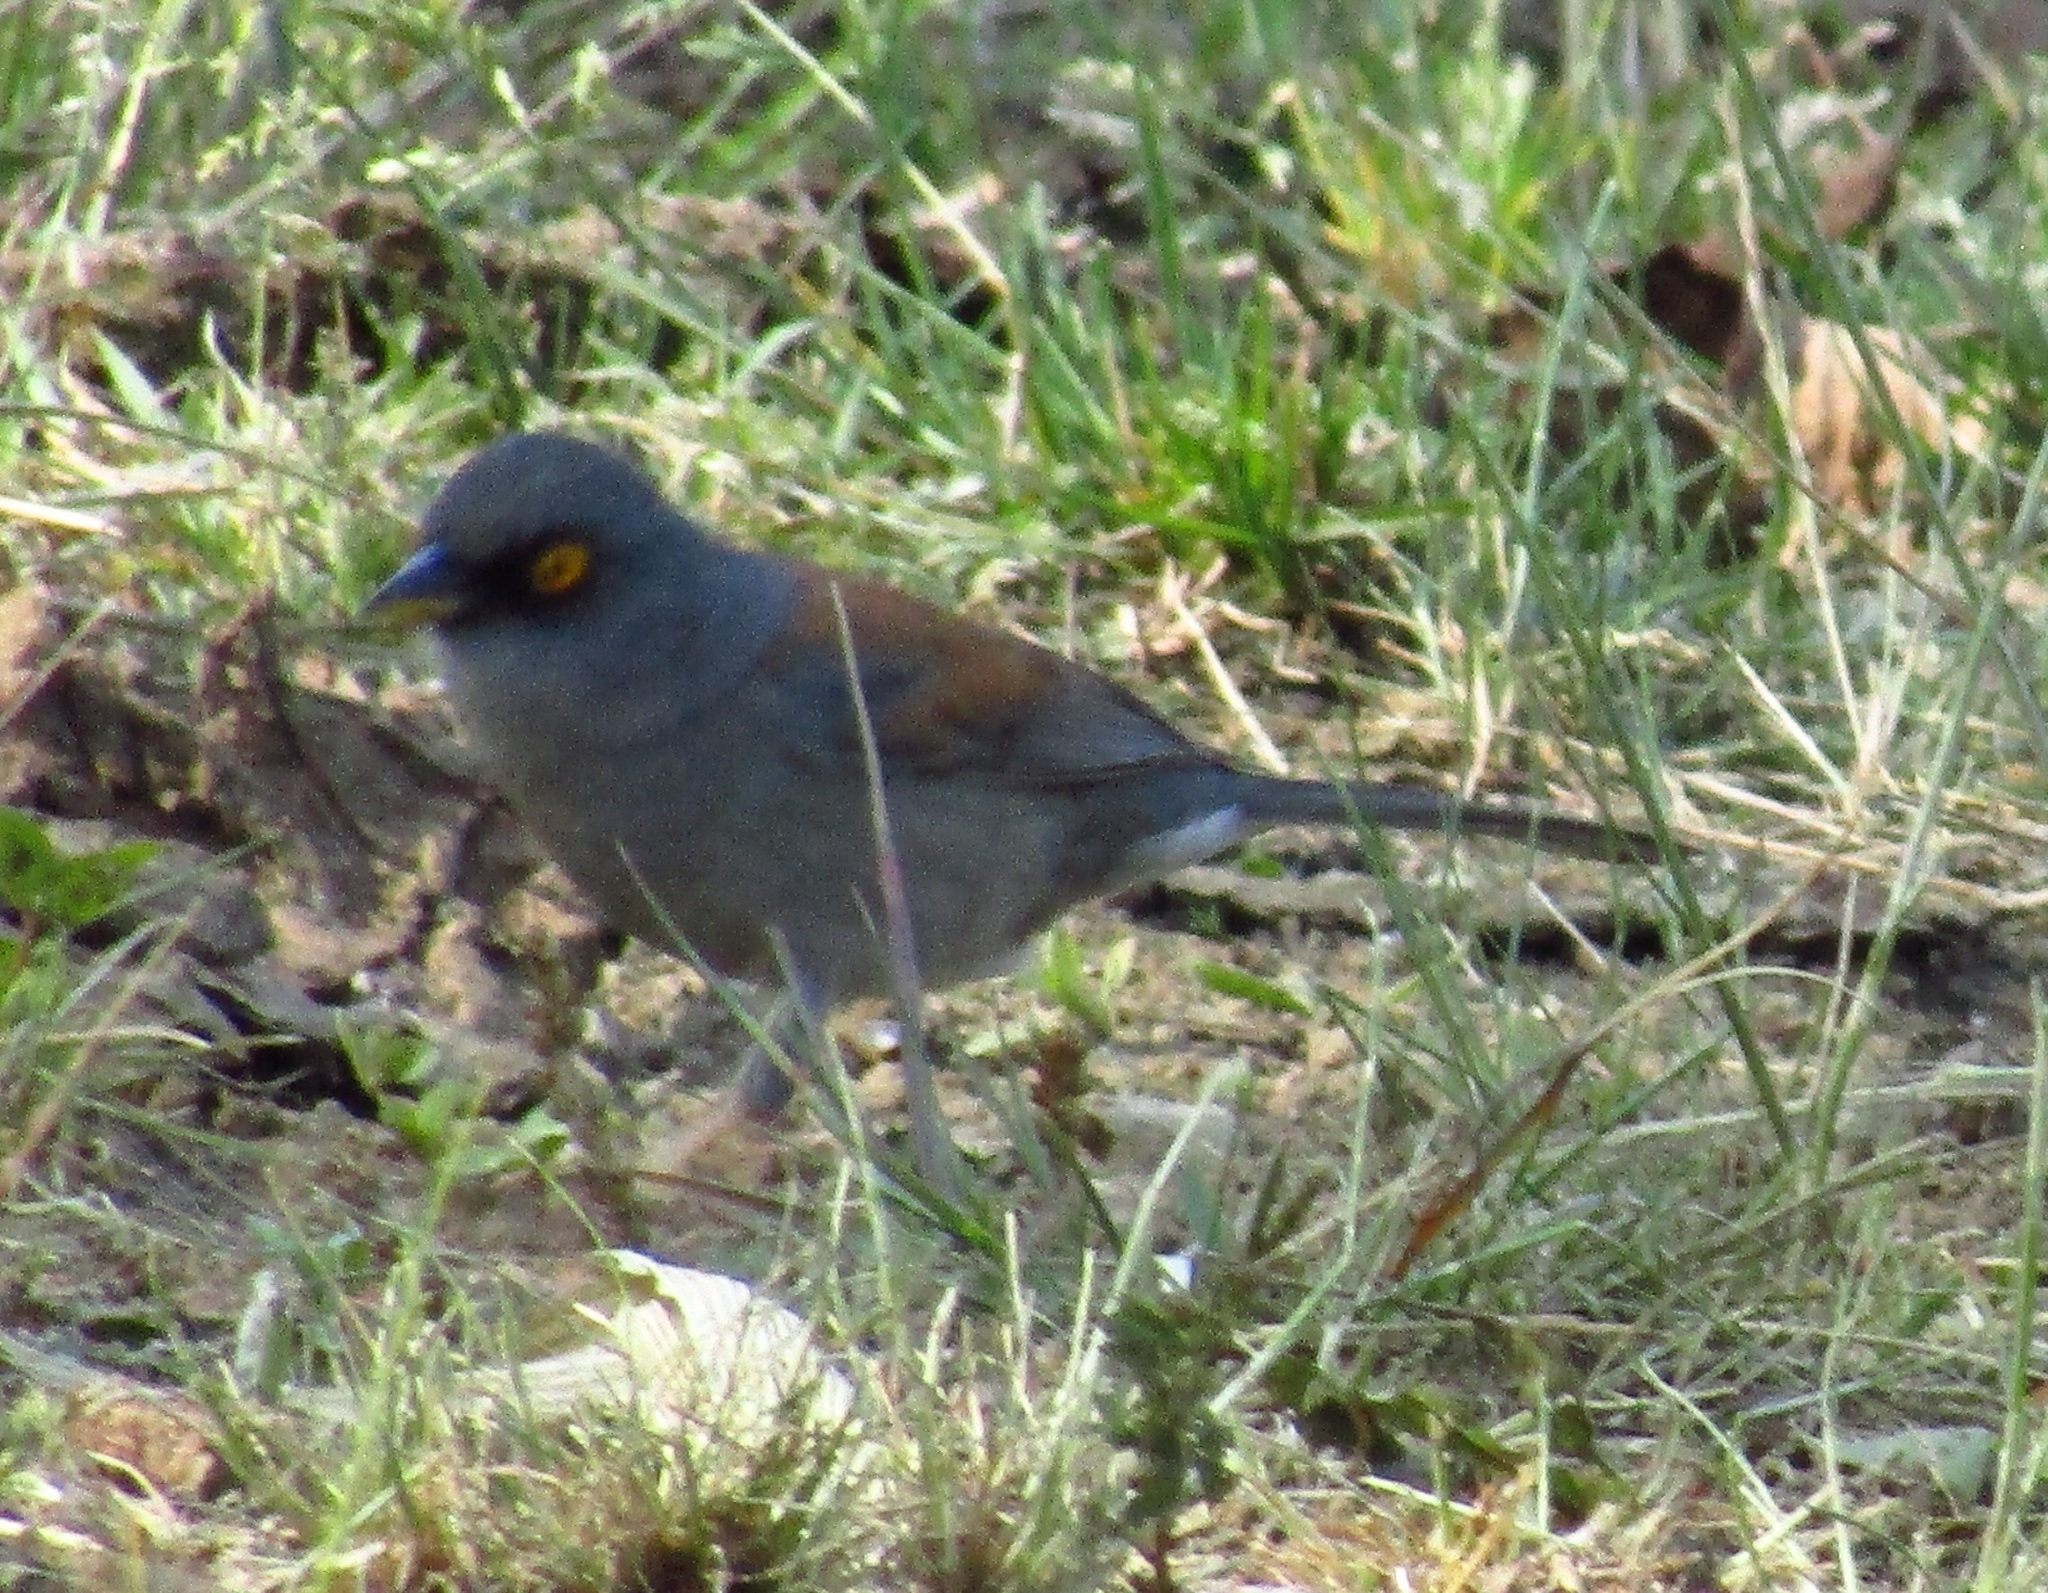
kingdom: Animalia
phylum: Chordata
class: Aves
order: Passeriformes
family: Passerellidae
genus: Junco
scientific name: Junco phaeonotus
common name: Yellow-eyed junco
